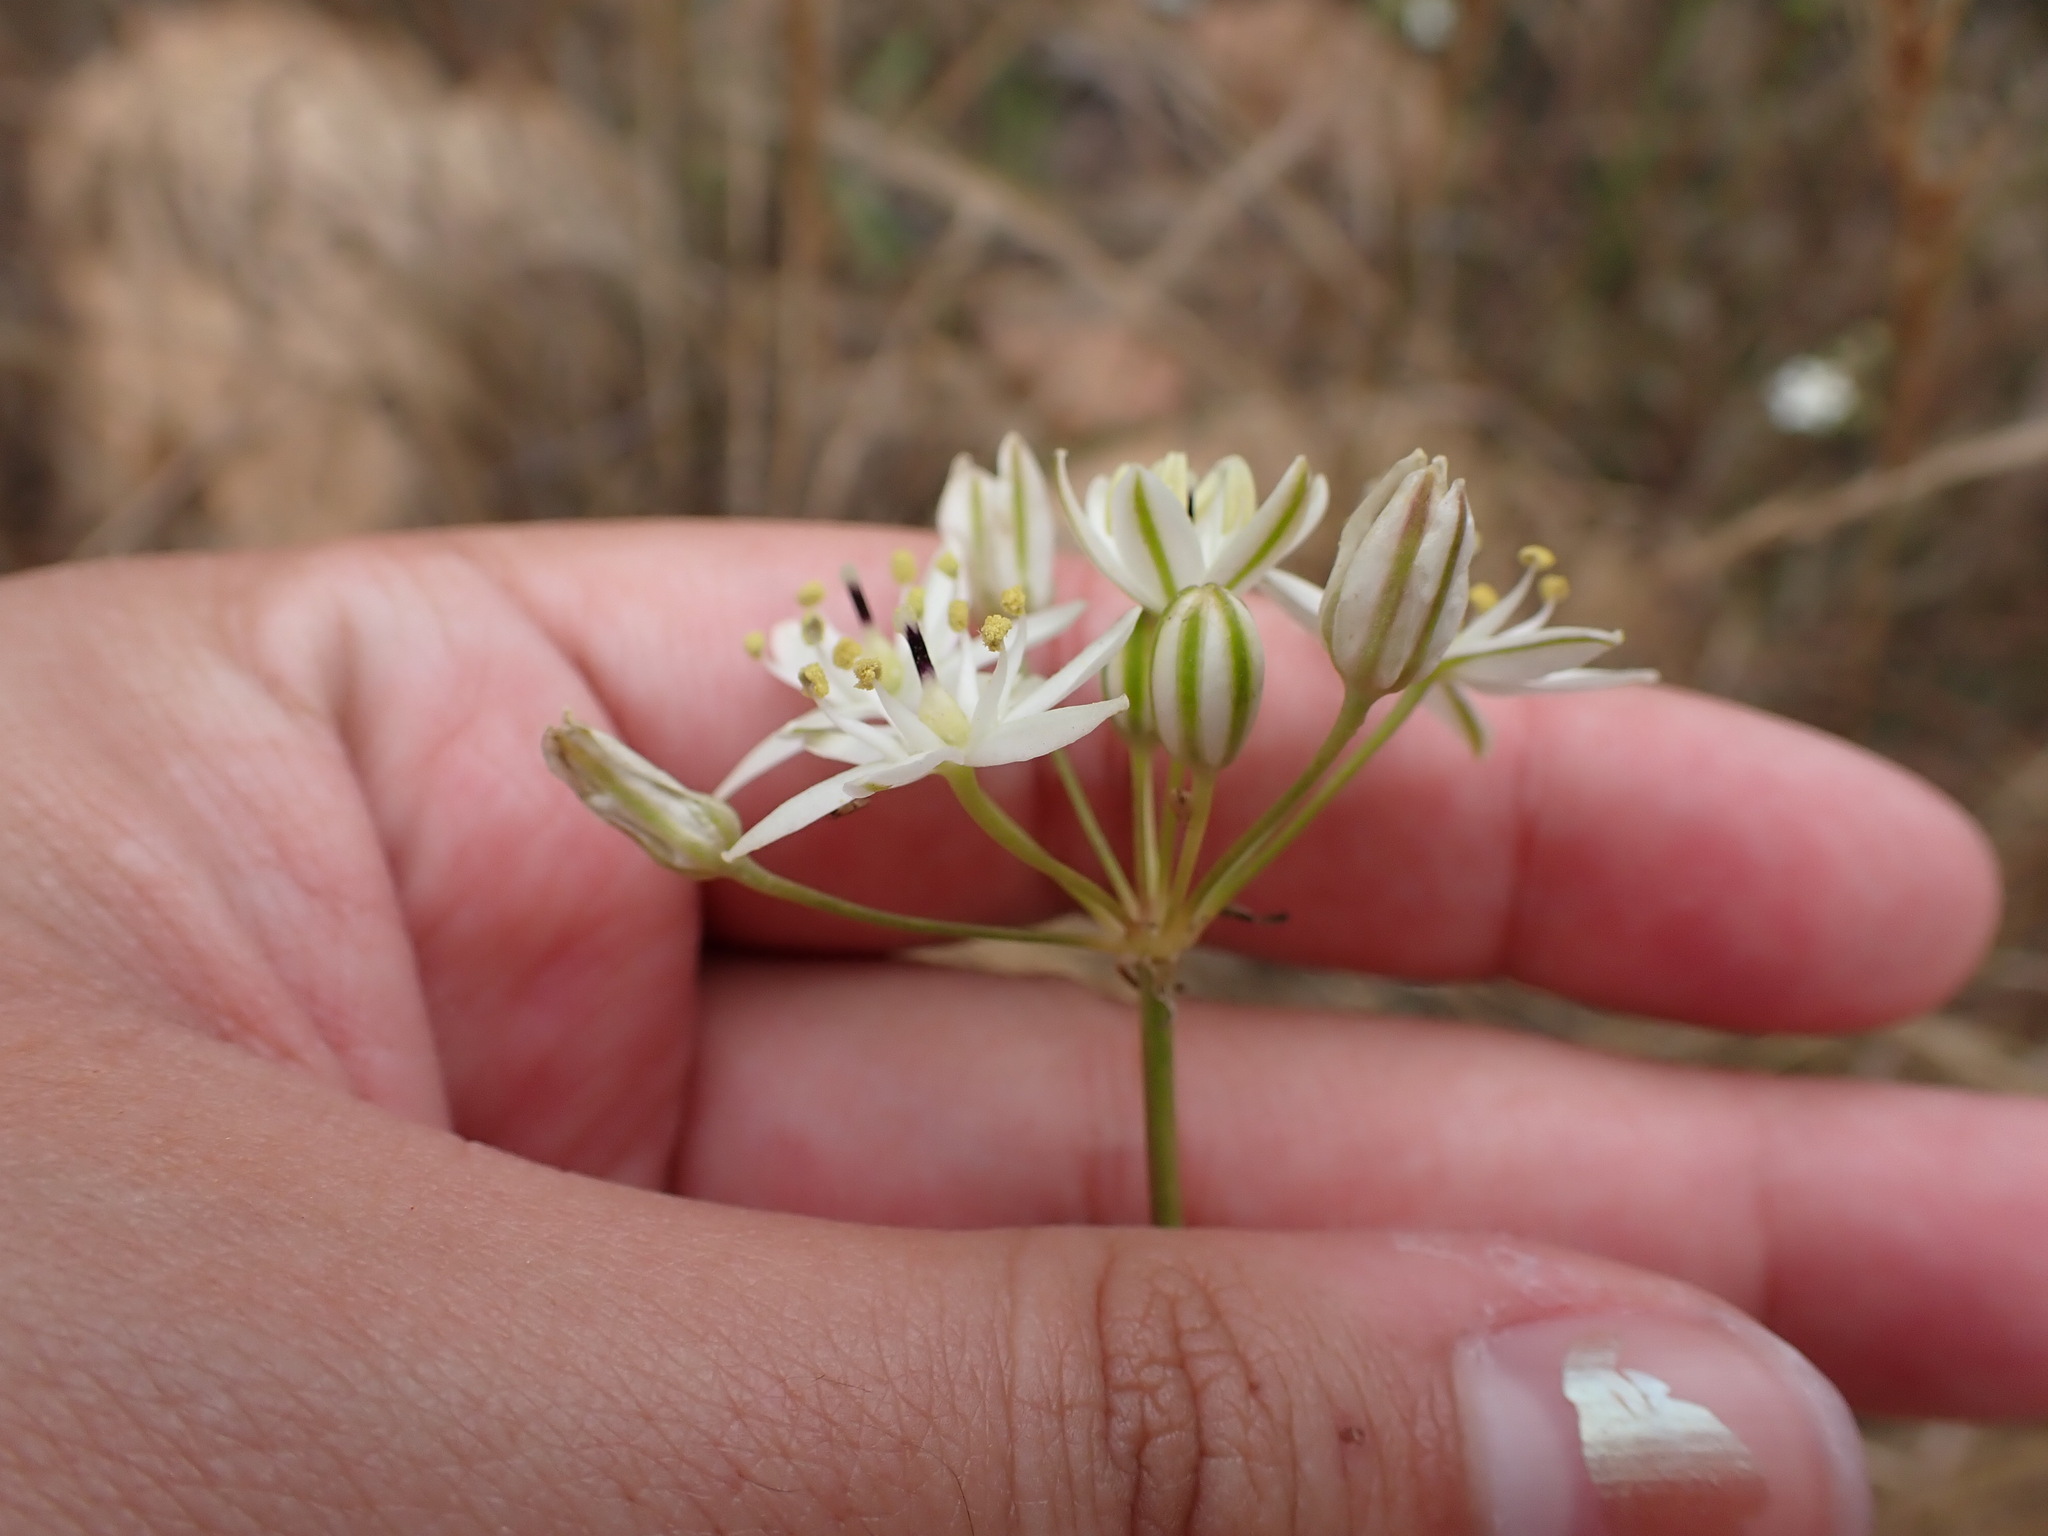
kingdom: Plantae
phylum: Tracheophyta
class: Liliopsida
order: Asparagales
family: Asparagaceae
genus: Muilla
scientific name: Muilla maritima
